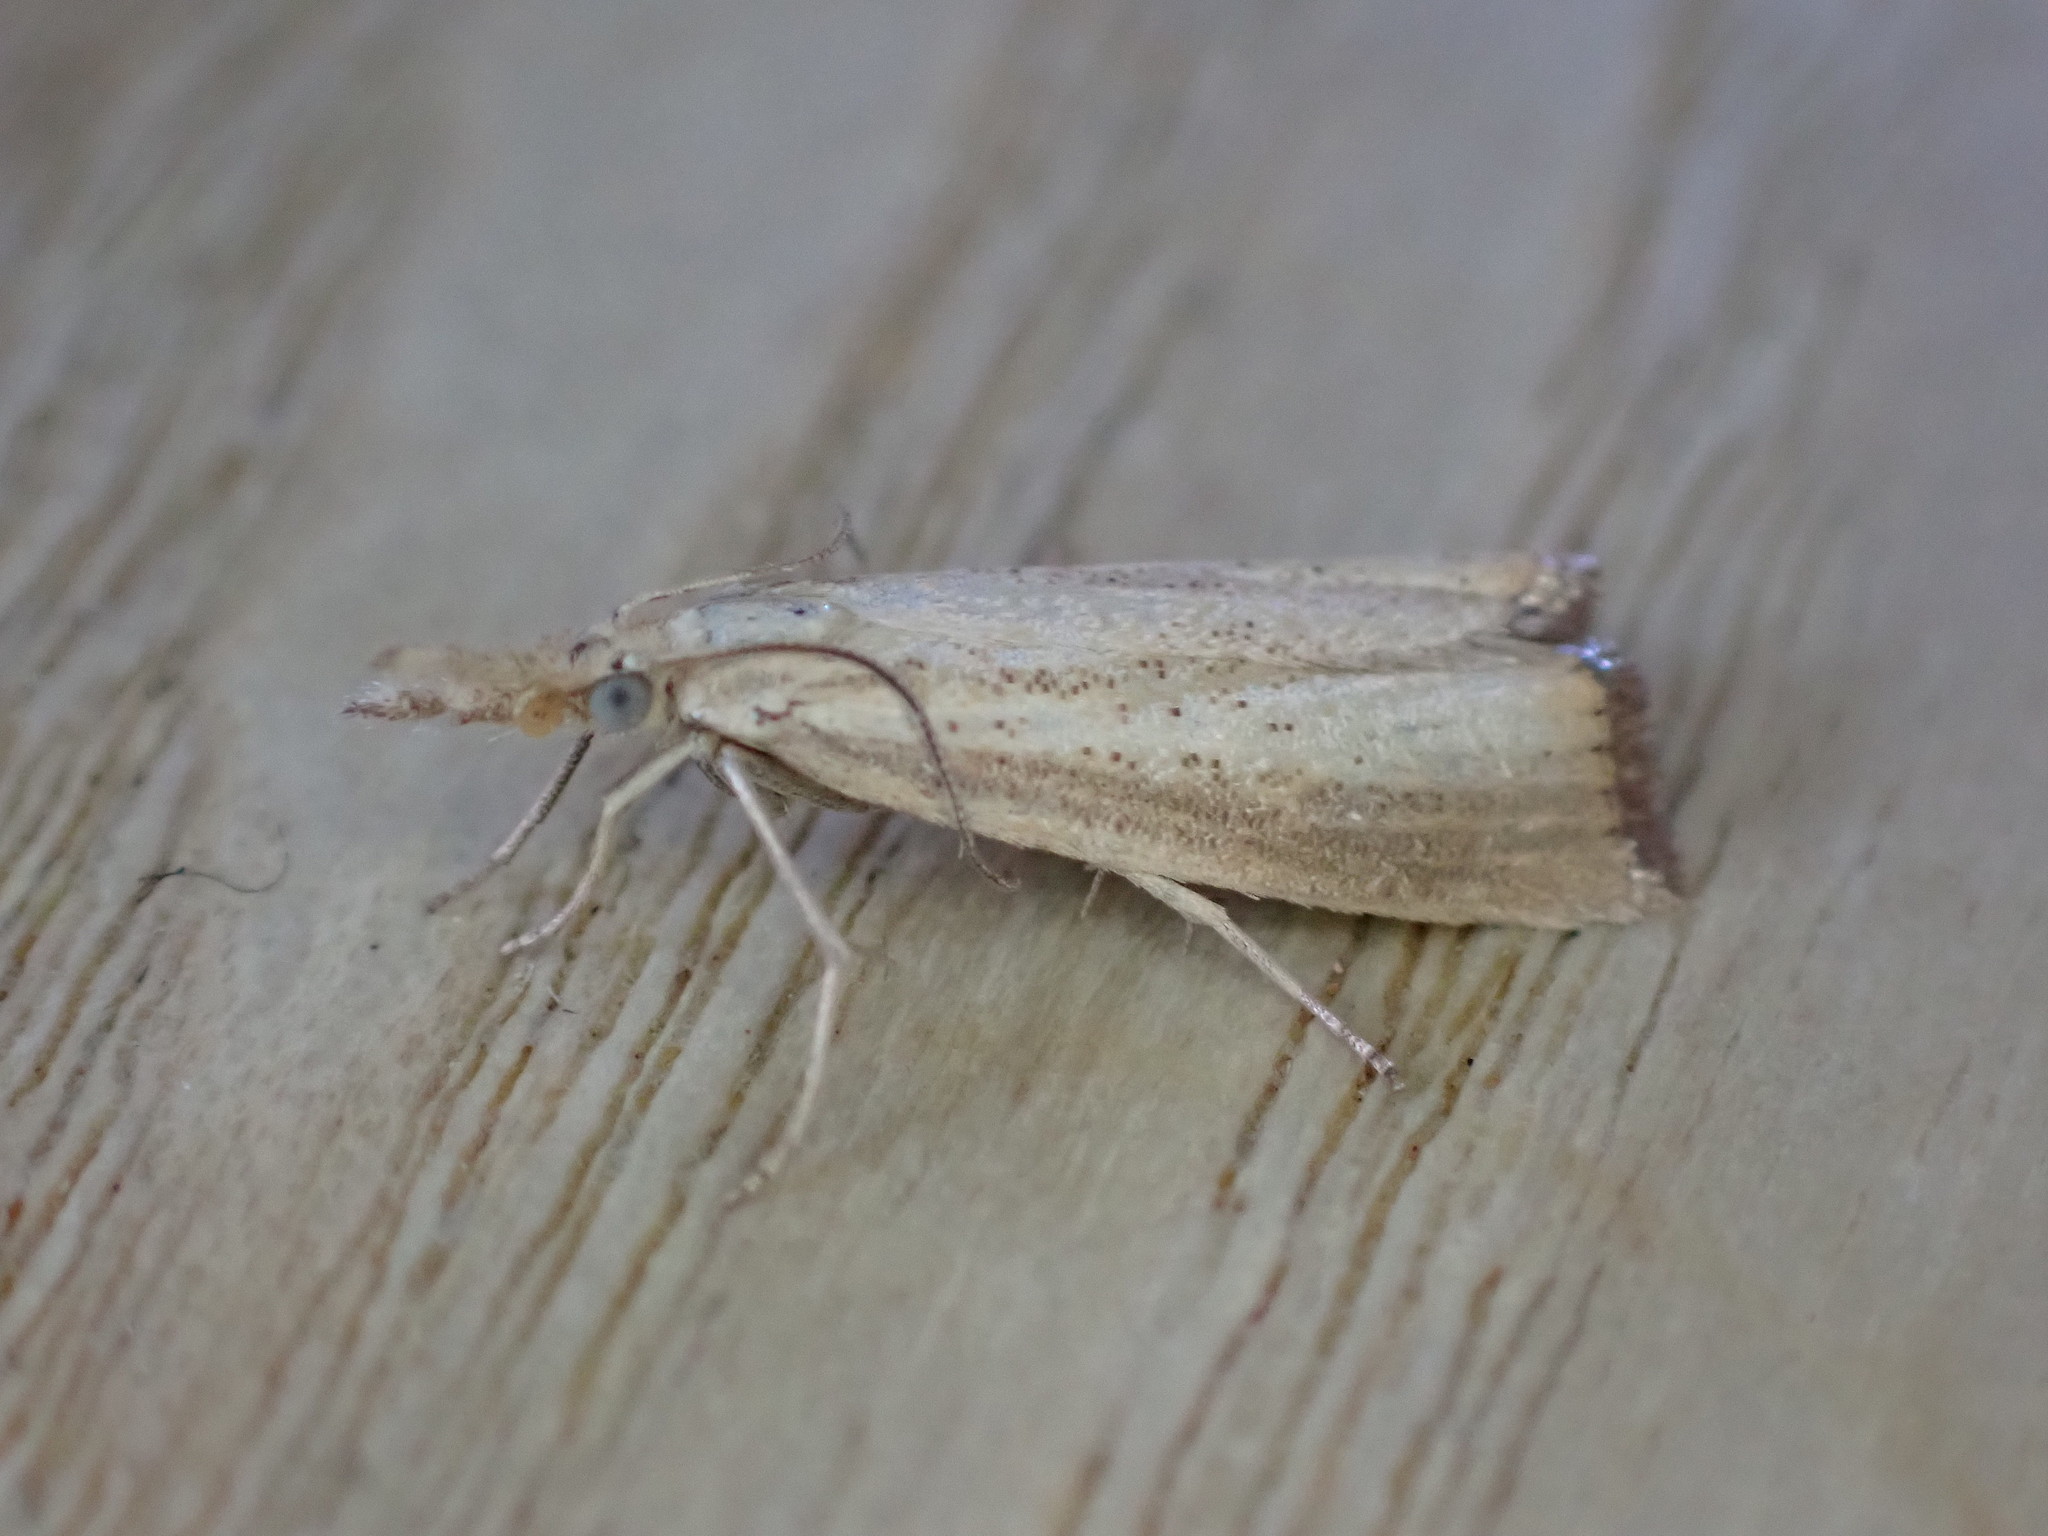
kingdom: Animalia
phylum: Arthropoda
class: Insecta
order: Lepidoptera
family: Crambidae
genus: Agriphila
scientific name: Agriphila straminella
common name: Straw grass-veneer
